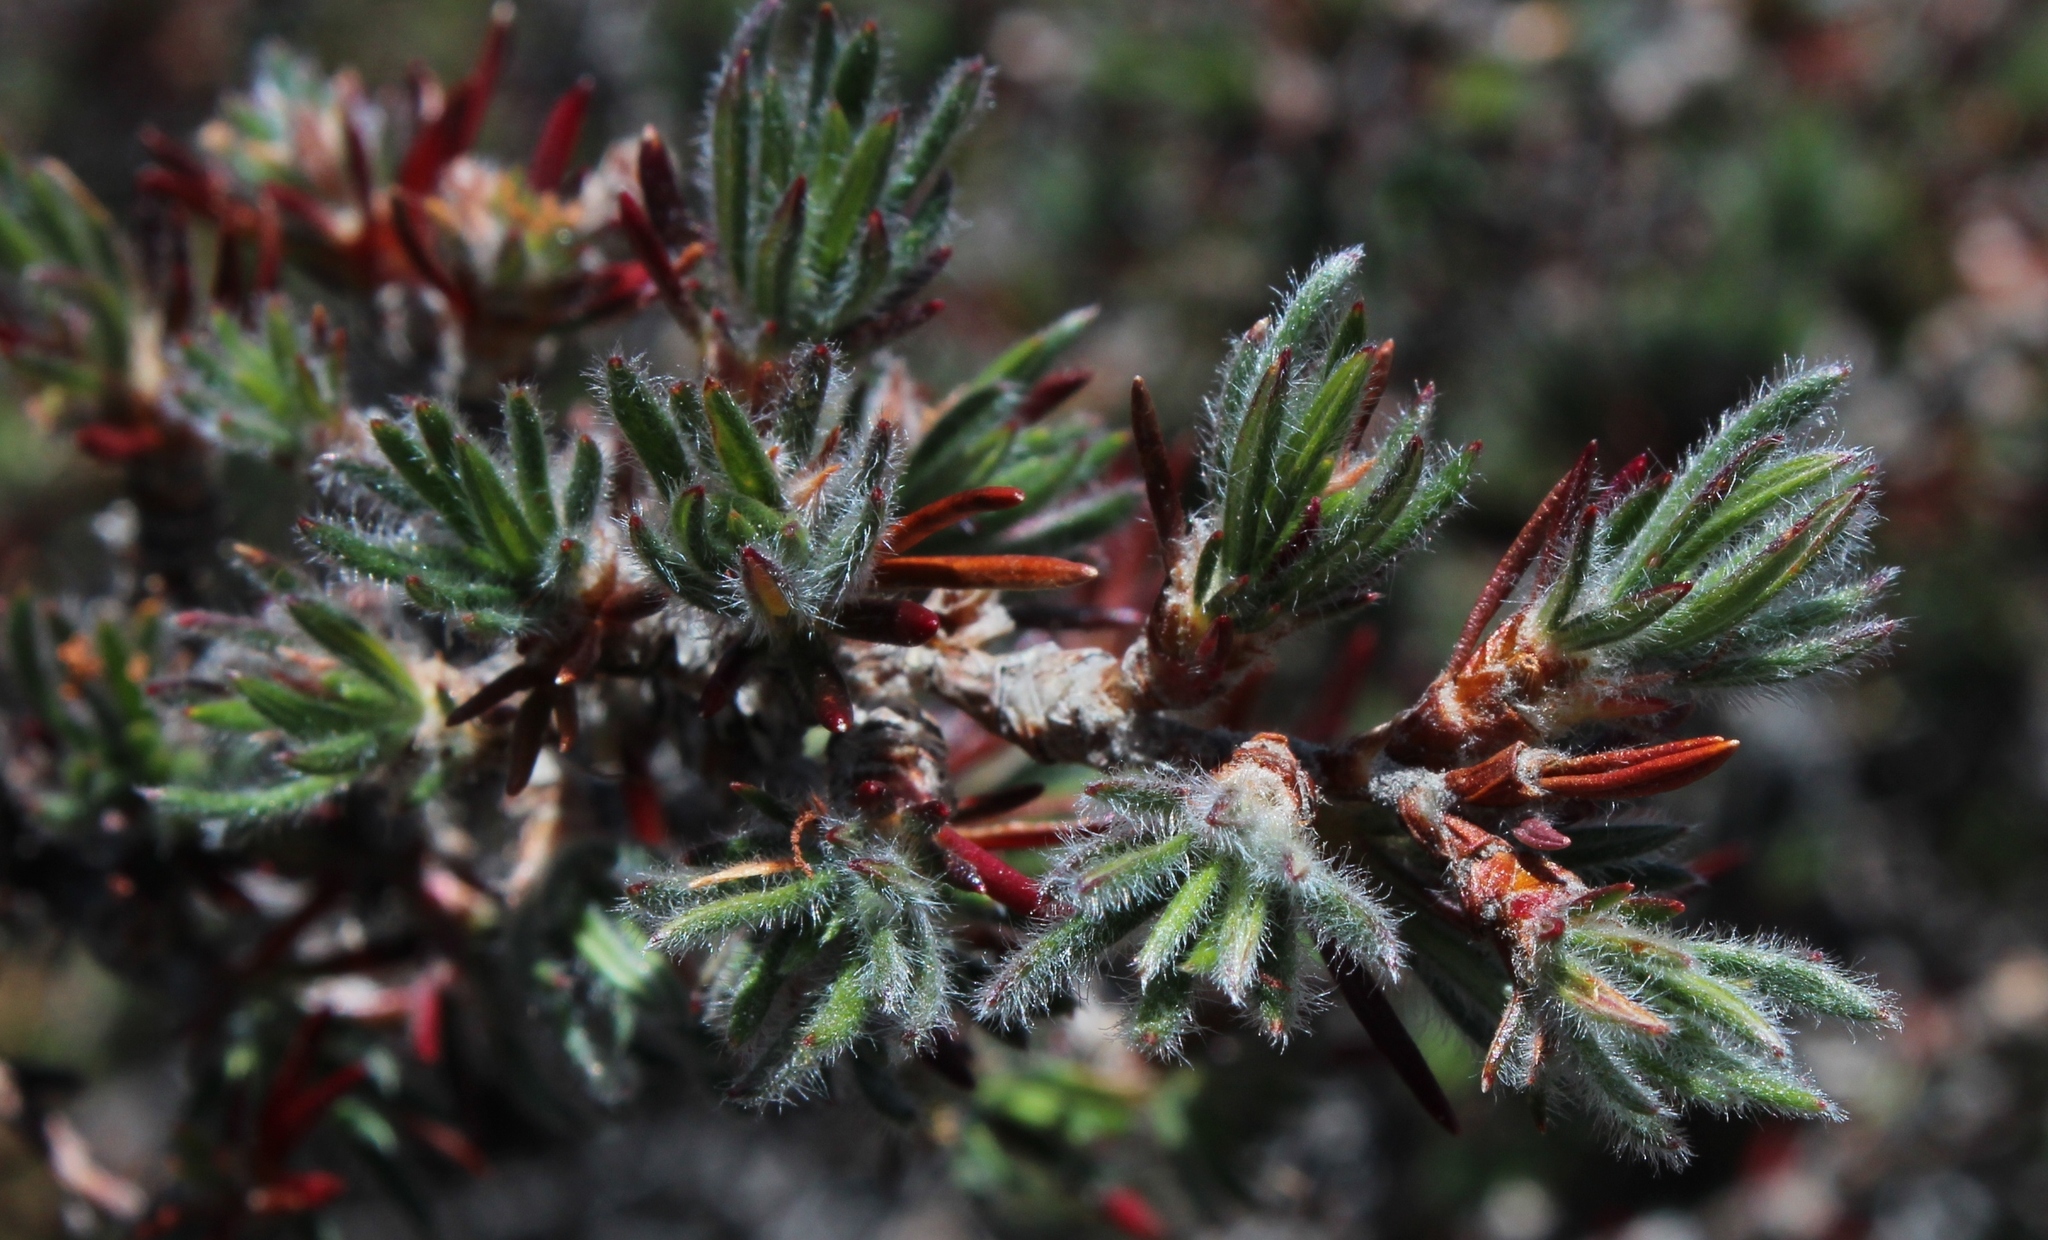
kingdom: Plantae
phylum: Tracheophyta
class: Magnoliopsida
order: Rosales
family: Rosaceae
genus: Cliffortia
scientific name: Cliffortia weimarckii
